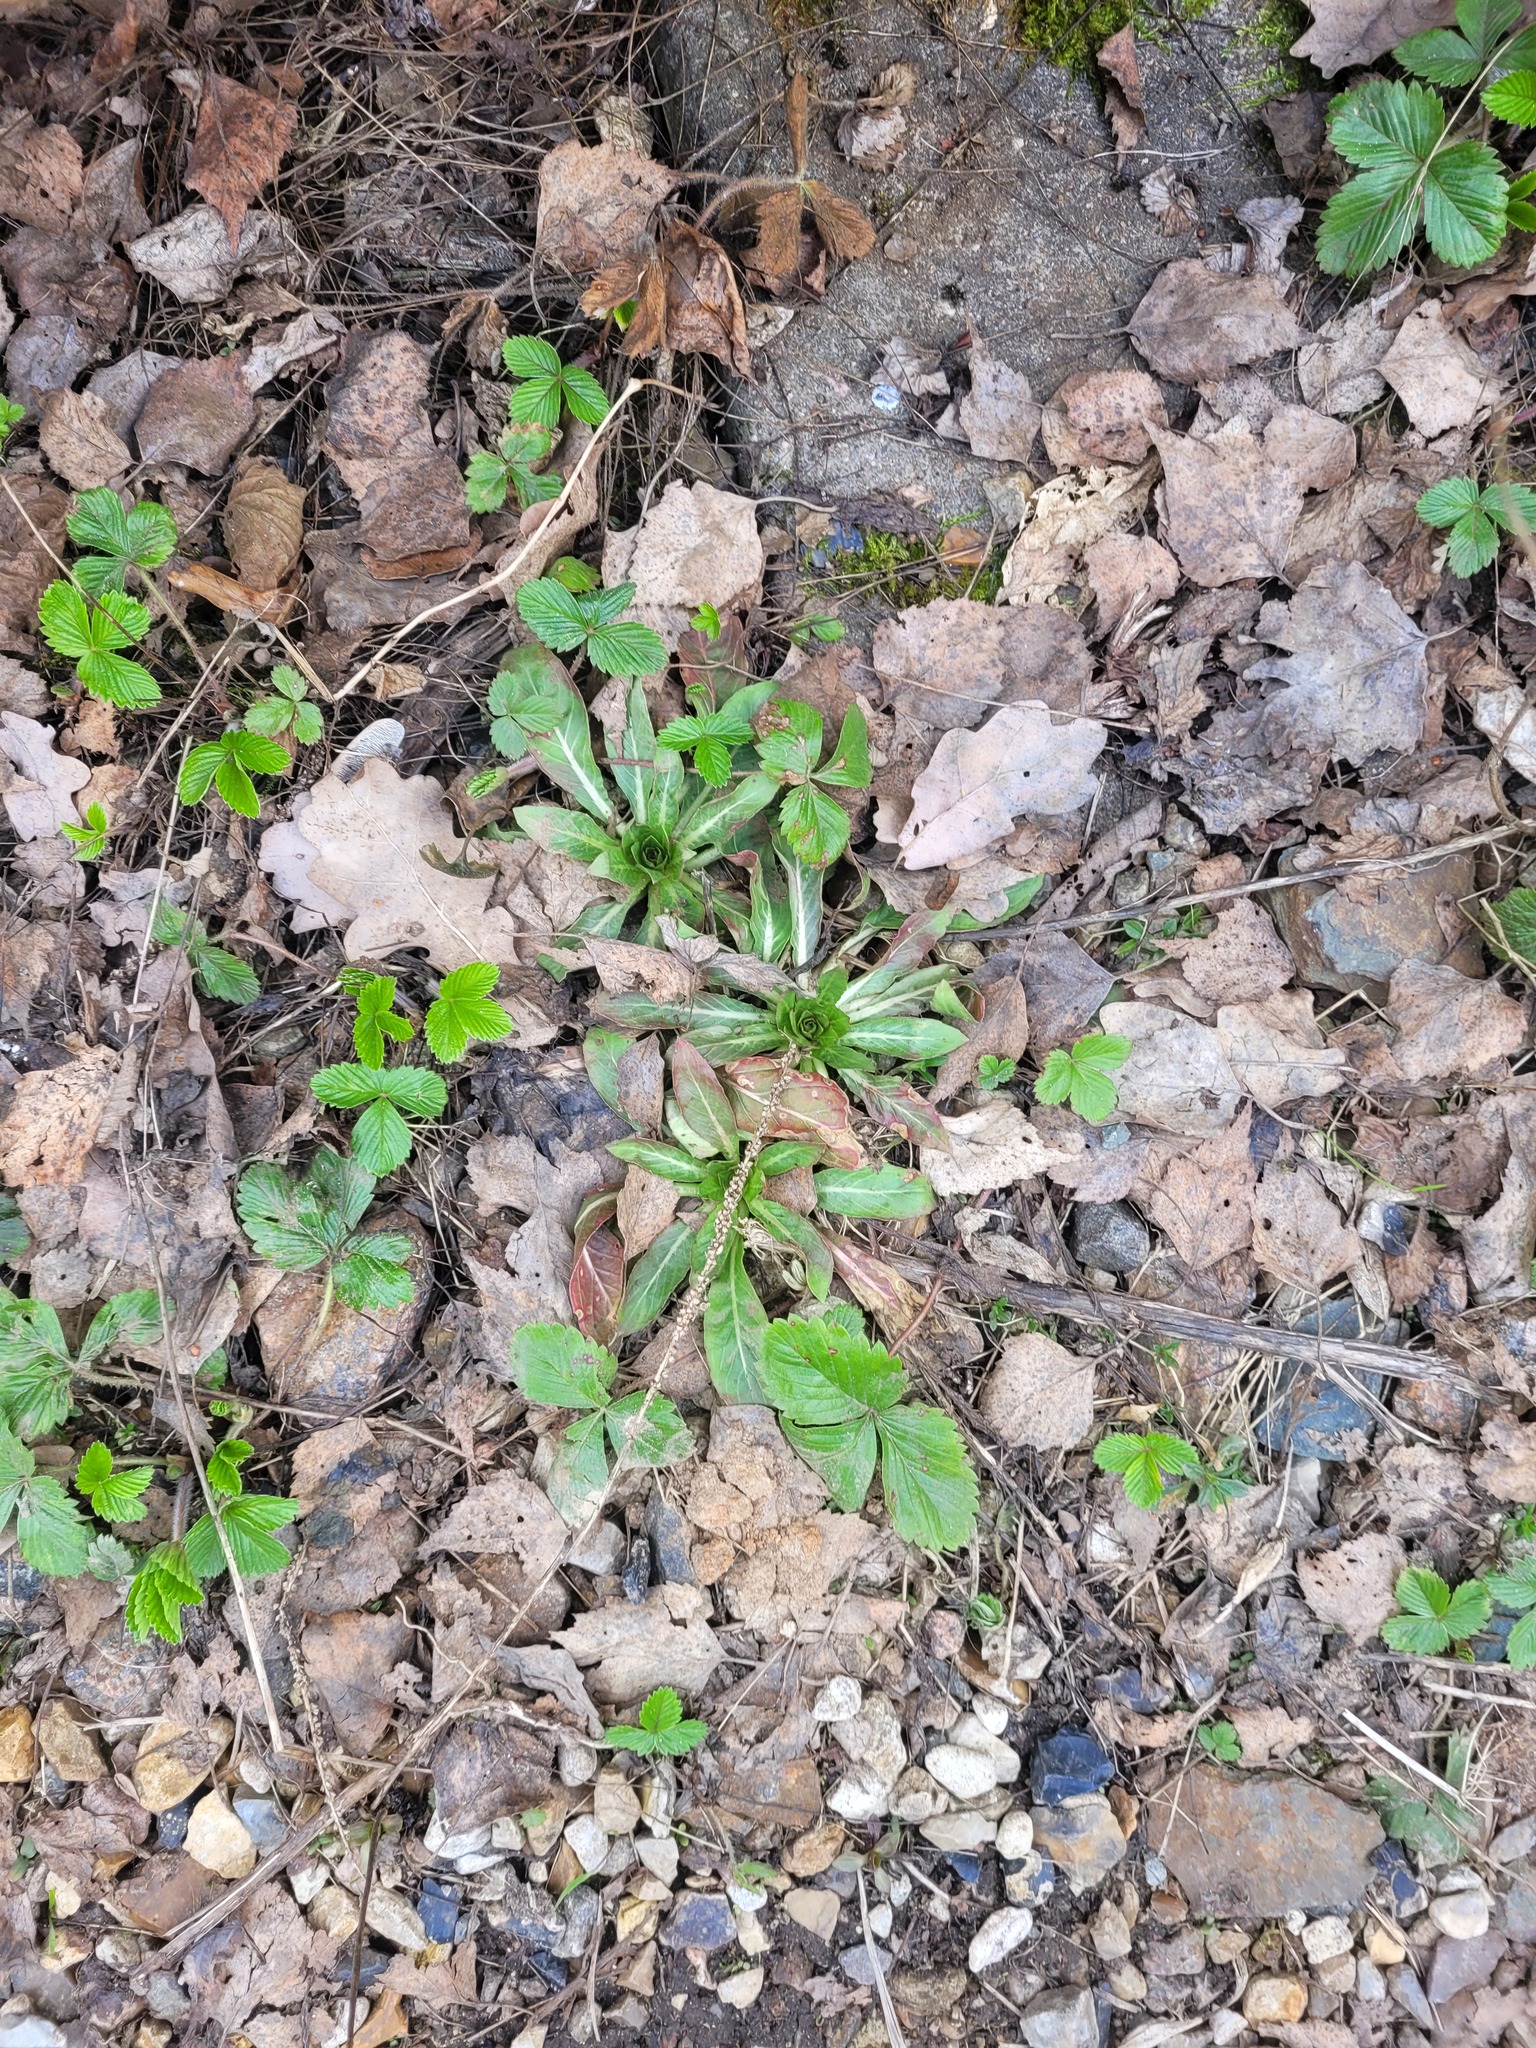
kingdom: Plantae
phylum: Tracheophyta
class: Magnoliopsida
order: Myrtales
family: Onagraceae
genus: Oenothera
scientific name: Oenothera
